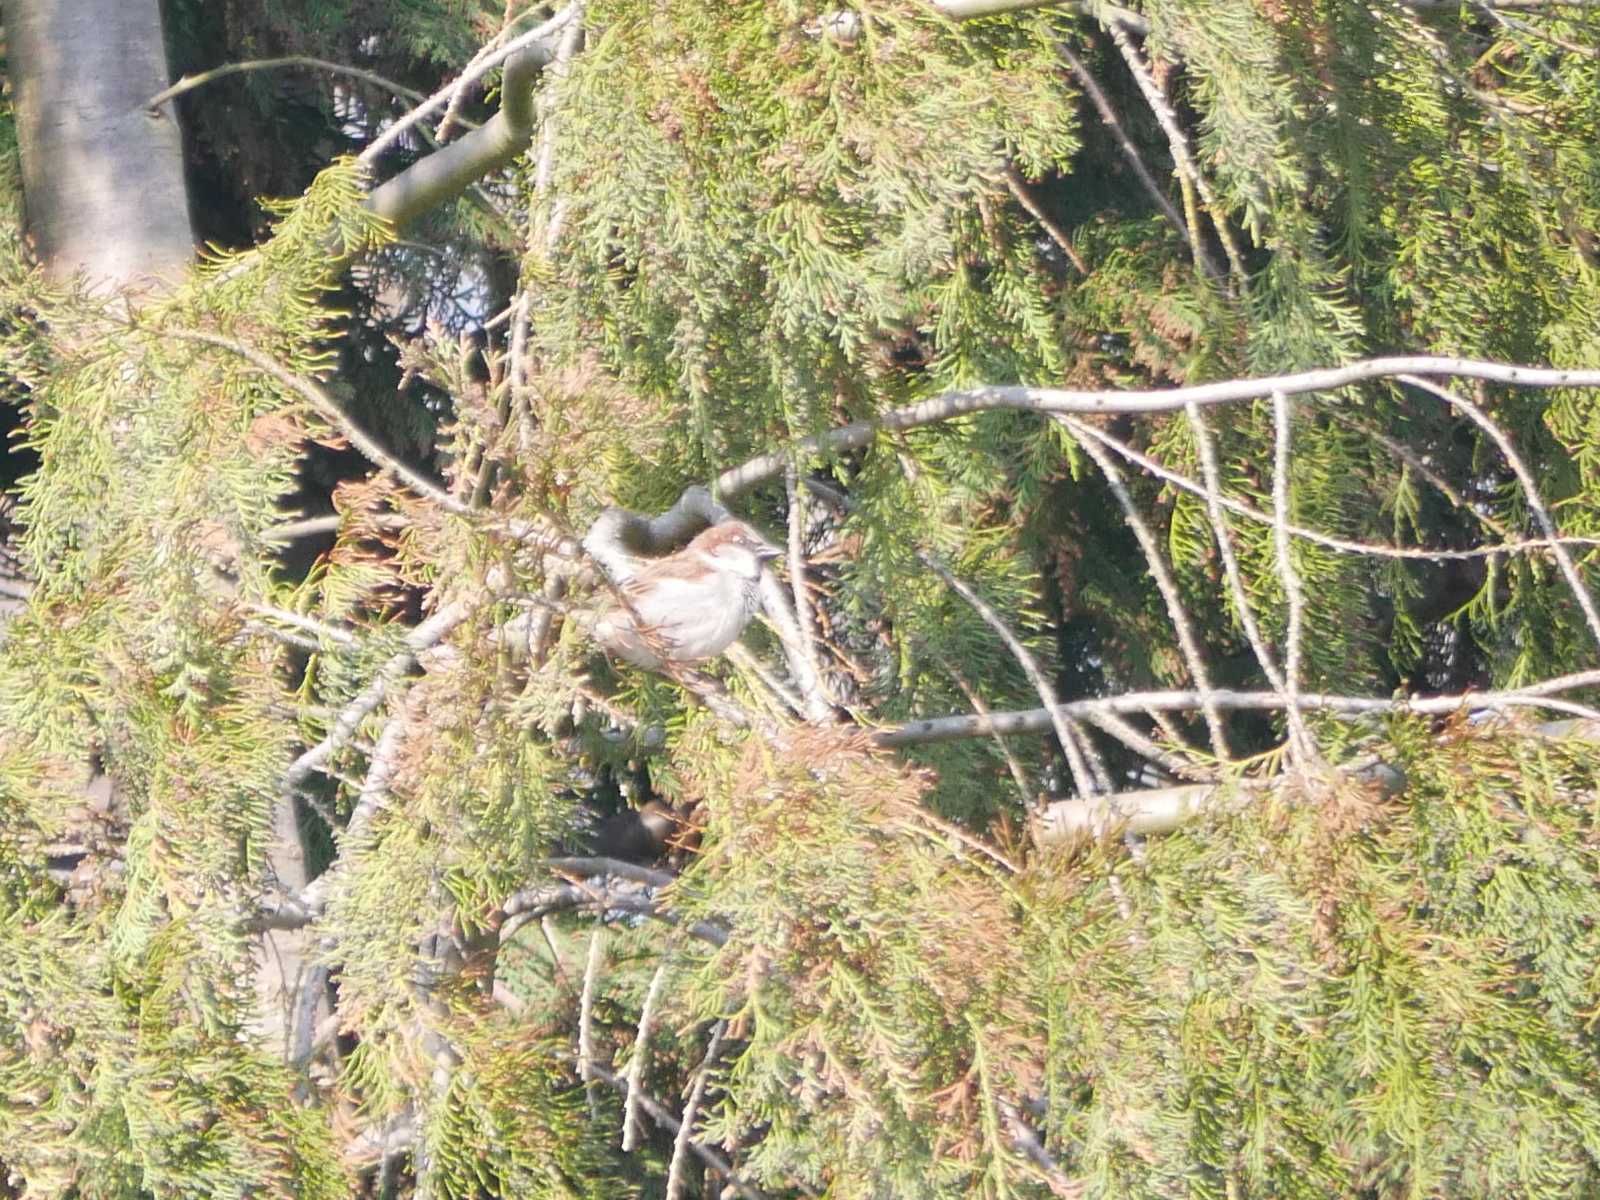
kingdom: Animalia
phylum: Chordata
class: Aves
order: Passeriformes
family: Passeridae
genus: Passer
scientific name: Passer domesticus
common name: House sparrow
